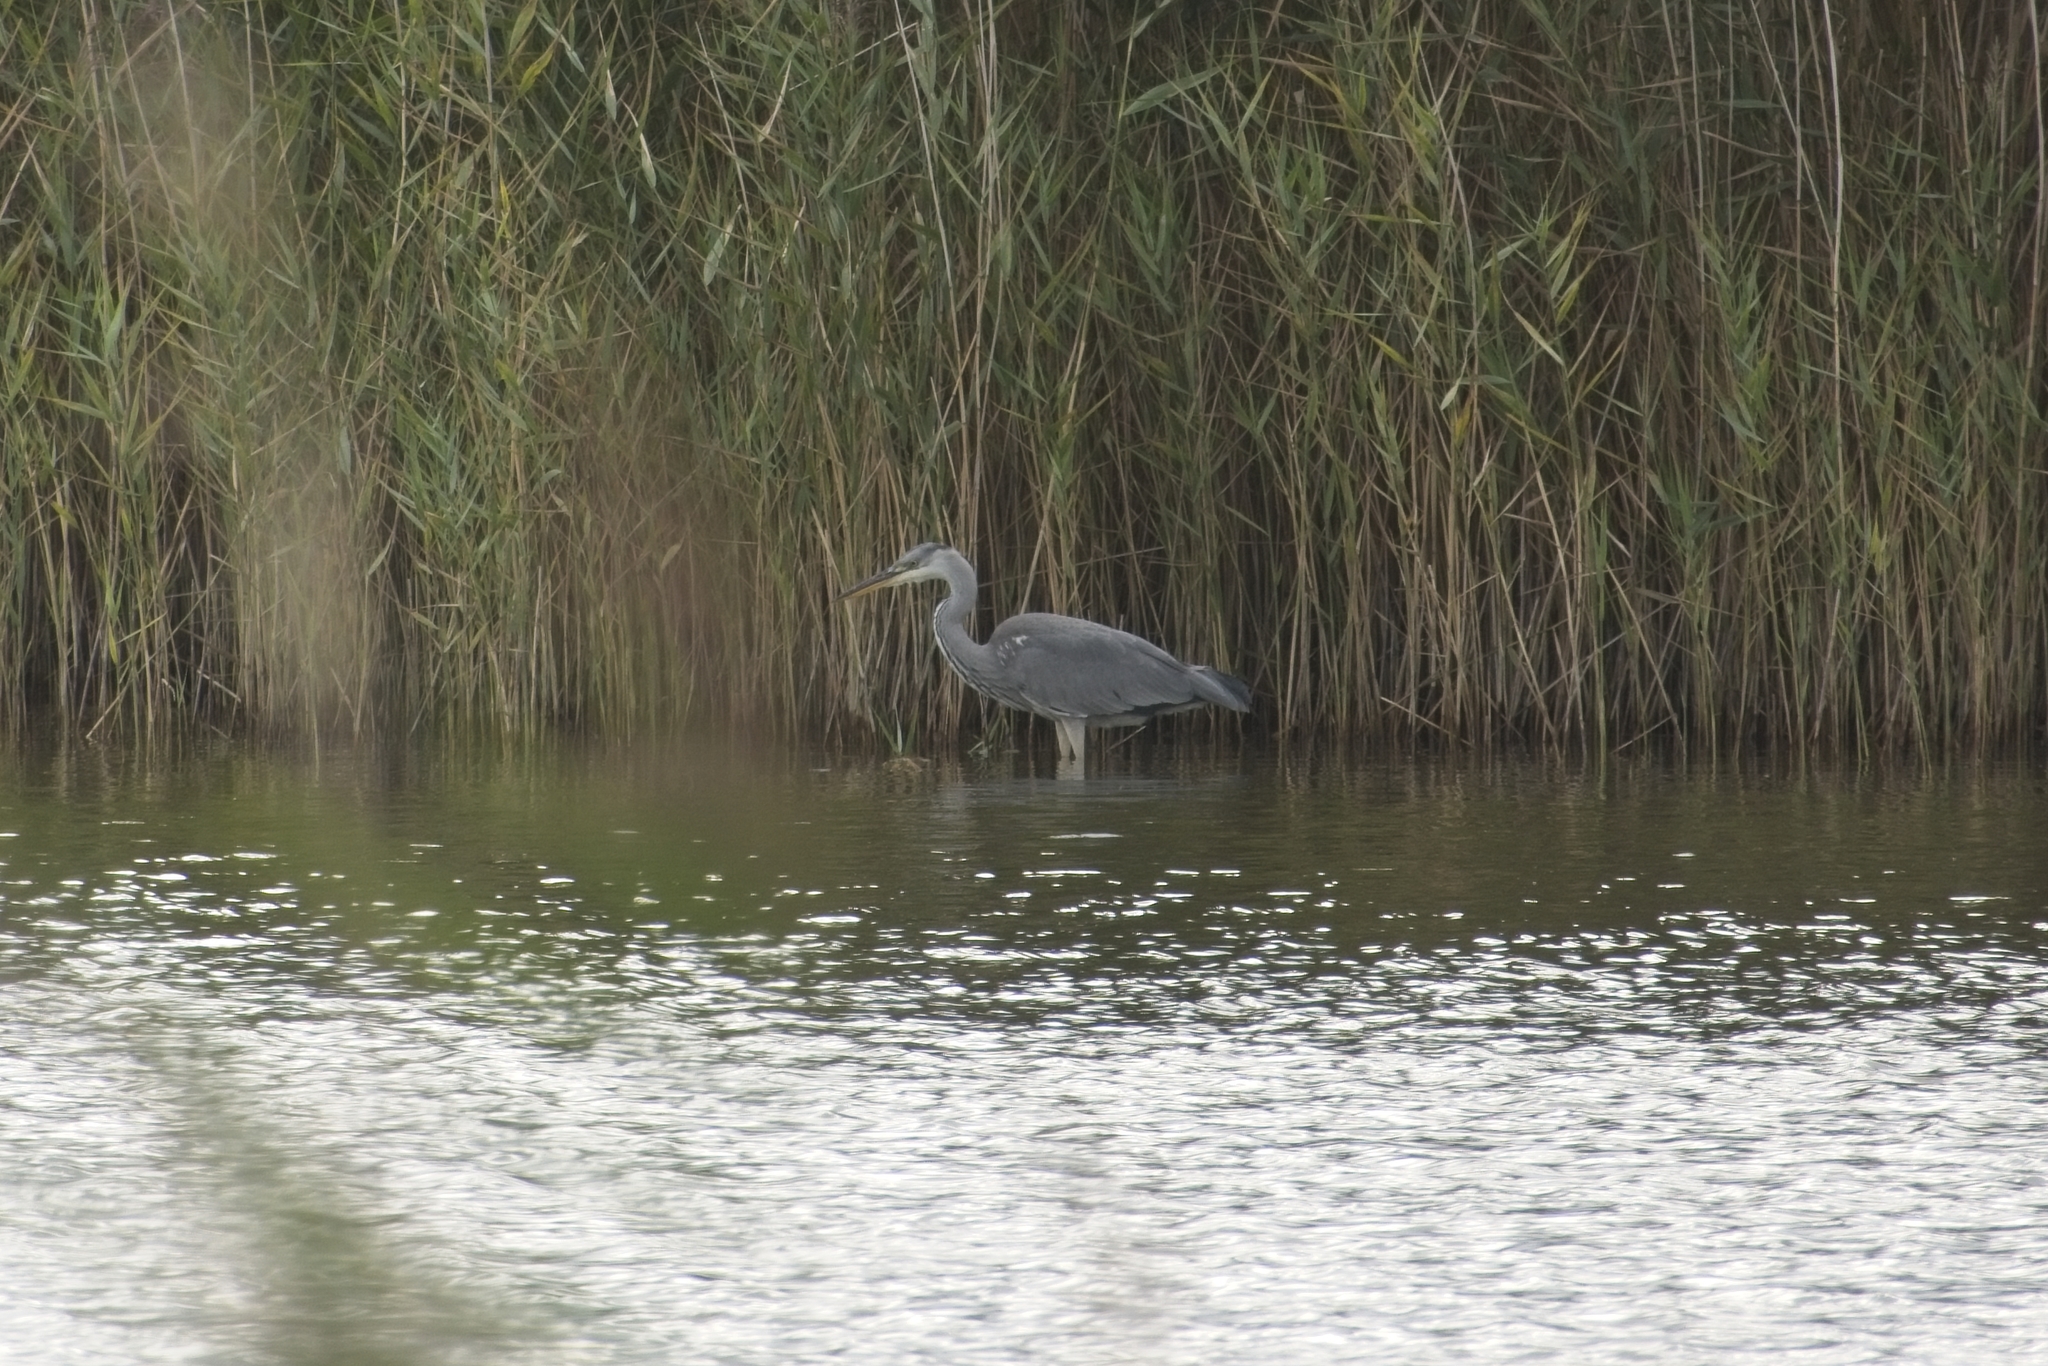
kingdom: Animalia
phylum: Chordata
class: Aves
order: Pelecaniformes
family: Ardeidae
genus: Ardea
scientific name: Ardea cinerea
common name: Grey heron
